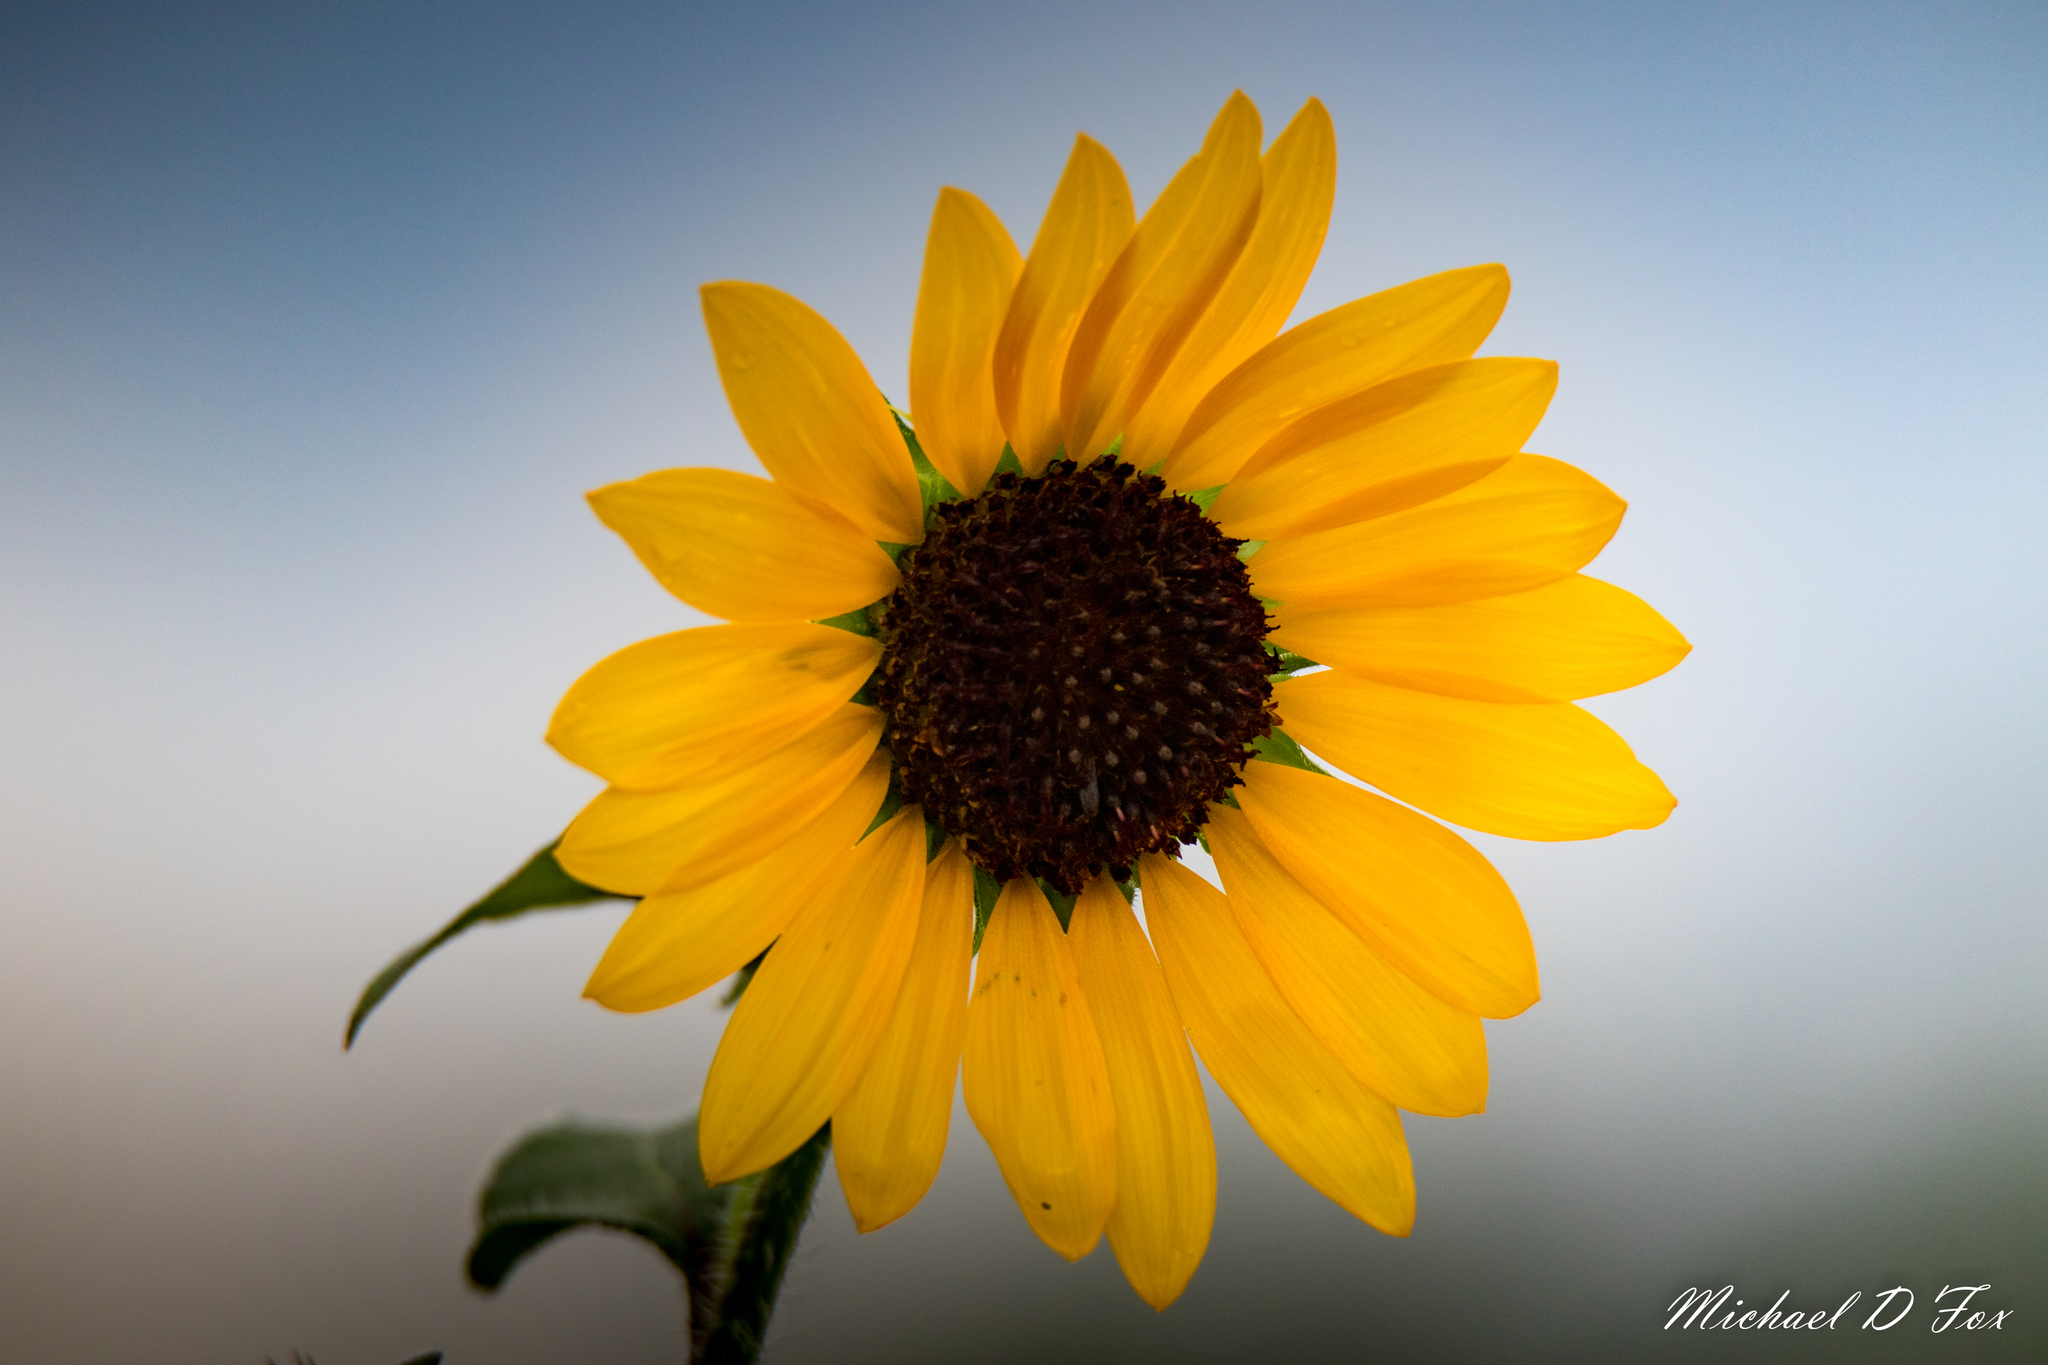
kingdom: Plantae
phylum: Tracheophyta
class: Magnoliopsida
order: Asterales
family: Asteraceae
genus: Helianthus
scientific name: Helianthus annuus
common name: Sunflower
